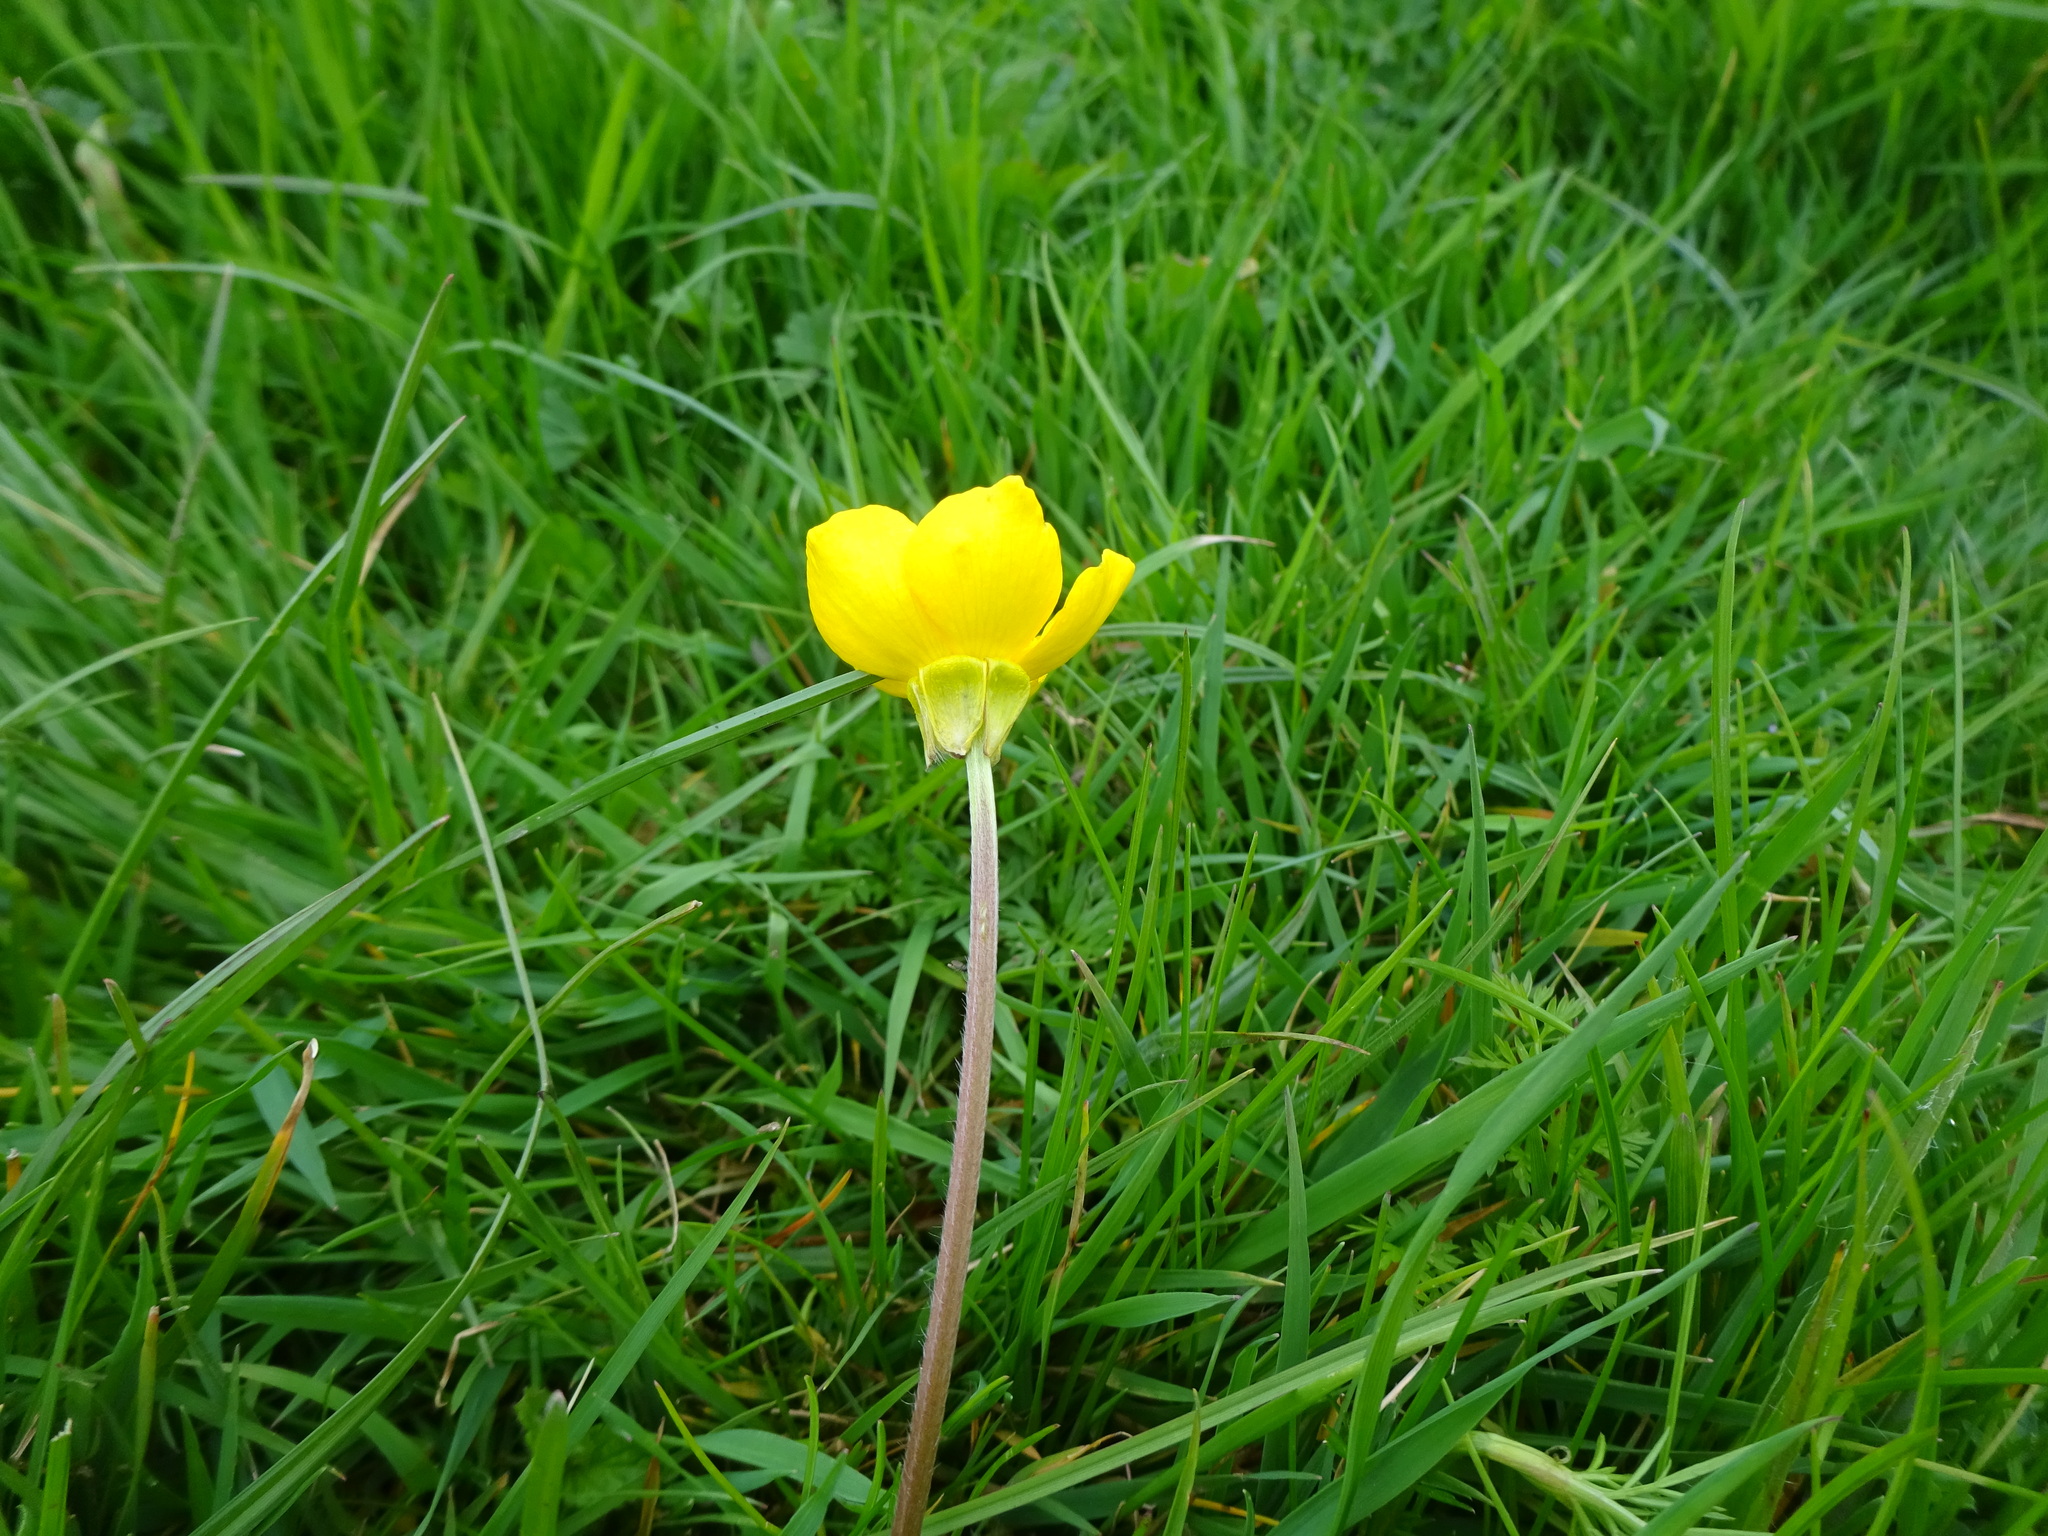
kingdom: Plantae
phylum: Tracheophyta
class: Magnoliopsida
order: Ranunculales
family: Ranunculaceae
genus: Ranunculus
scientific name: Ranunculus bulbosus
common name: Bulbous buttercup
